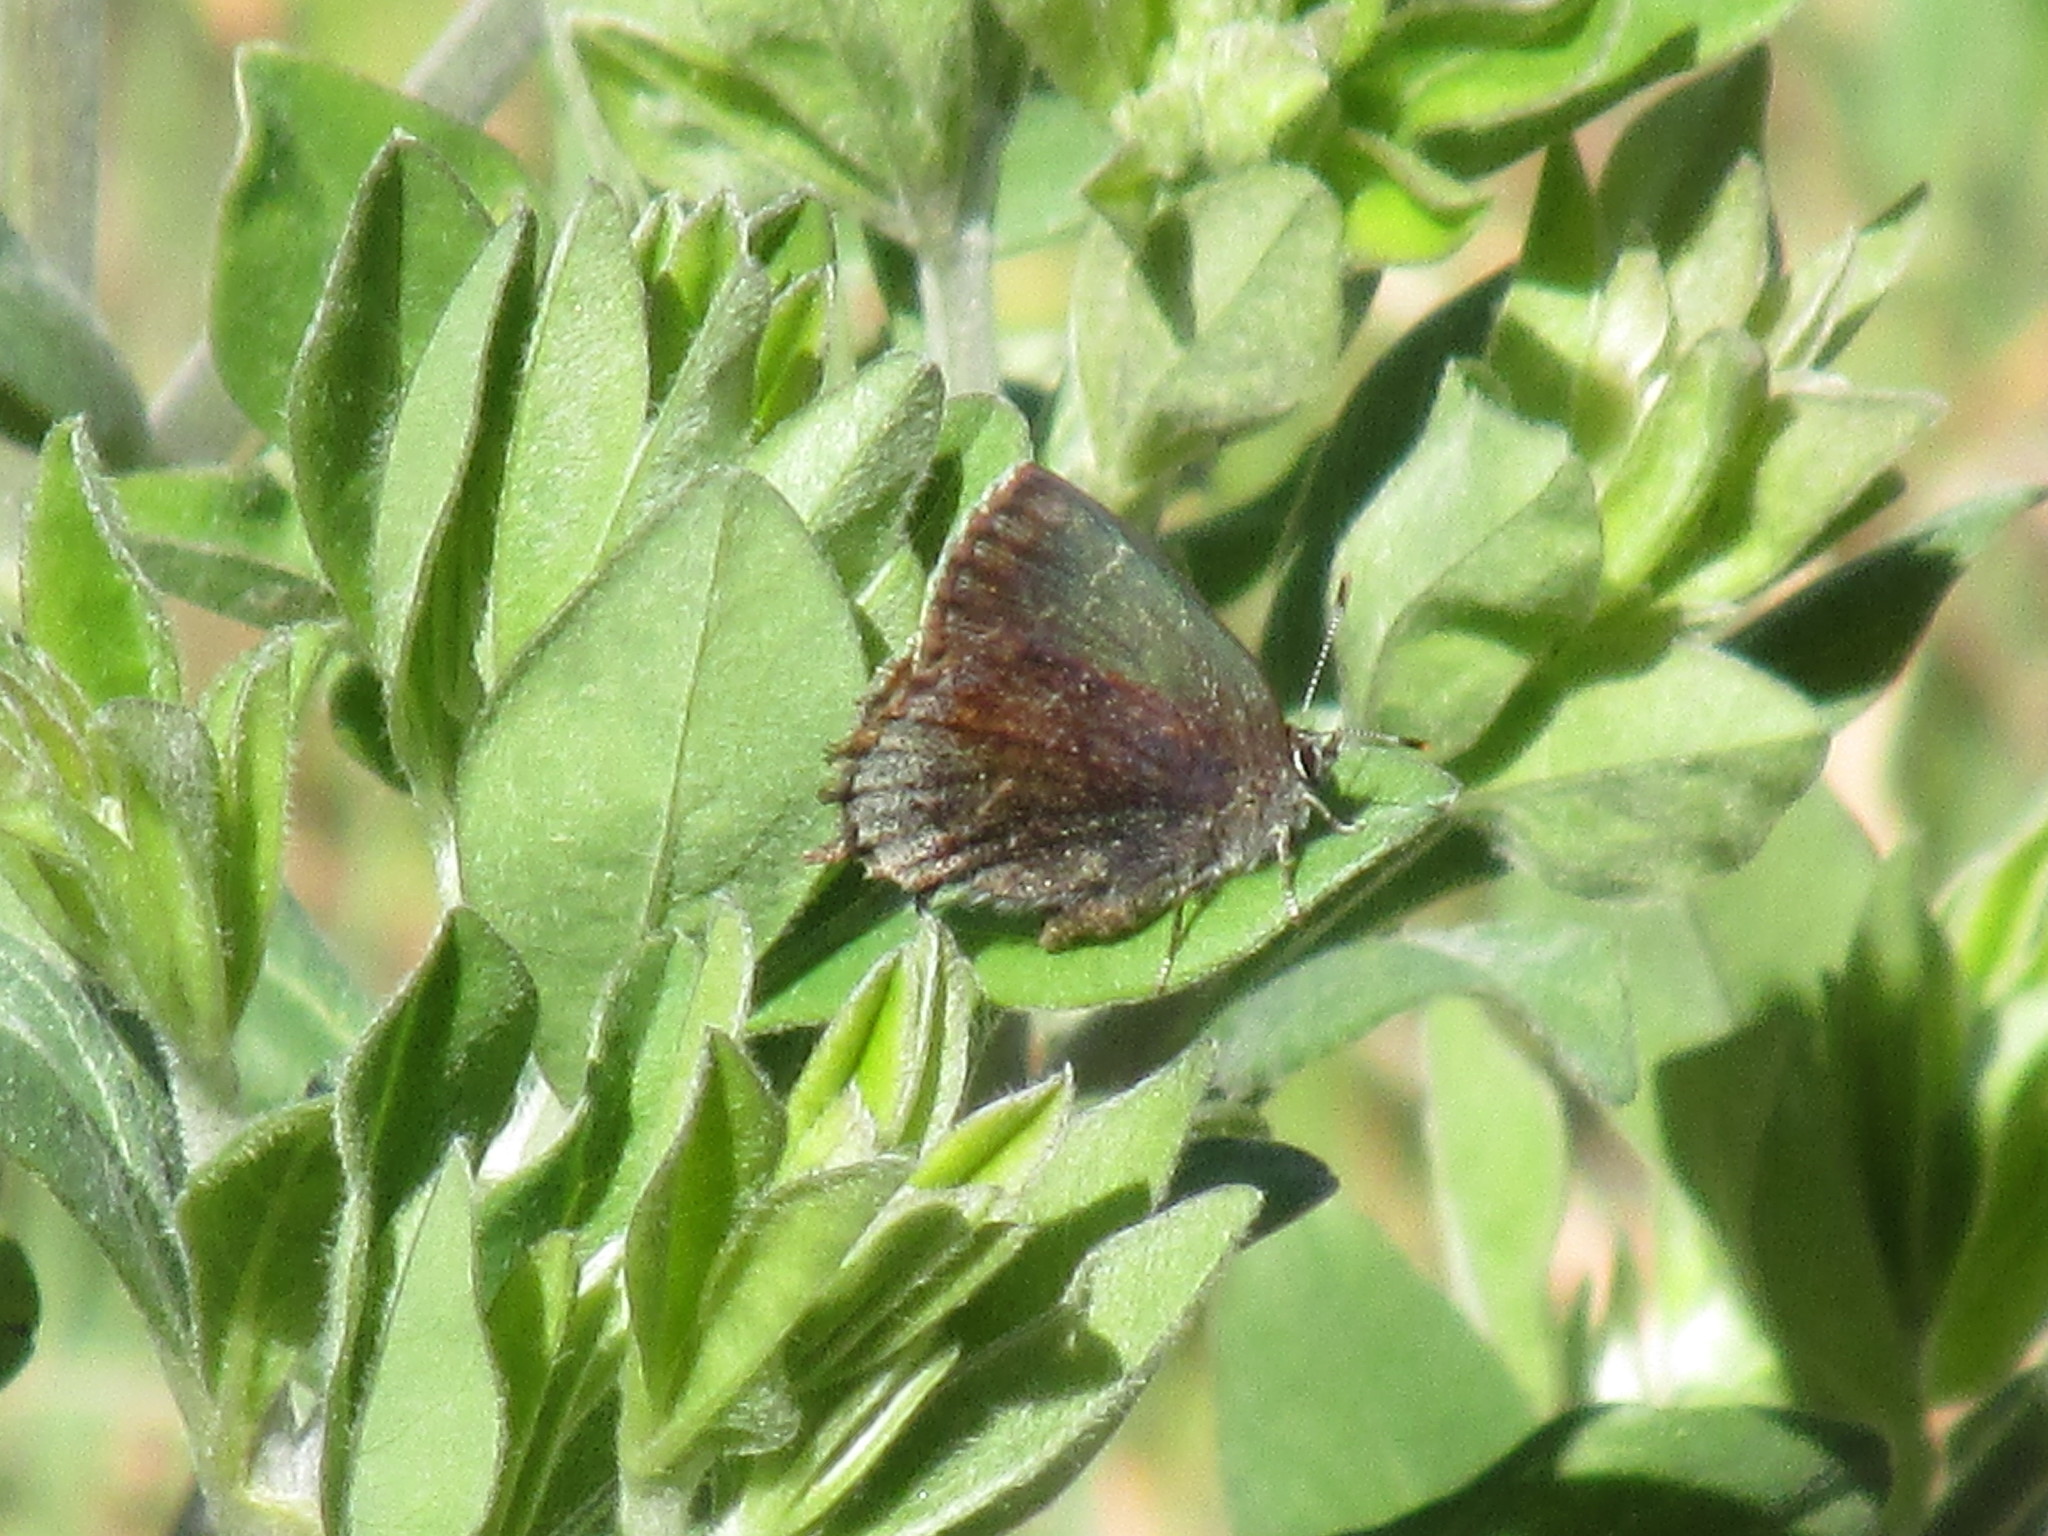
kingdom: Animalia
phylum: Arthropoda
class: Insecta
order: Lepidoptera
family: Lycaenidae
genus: Thecla
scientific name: Thecla irus
